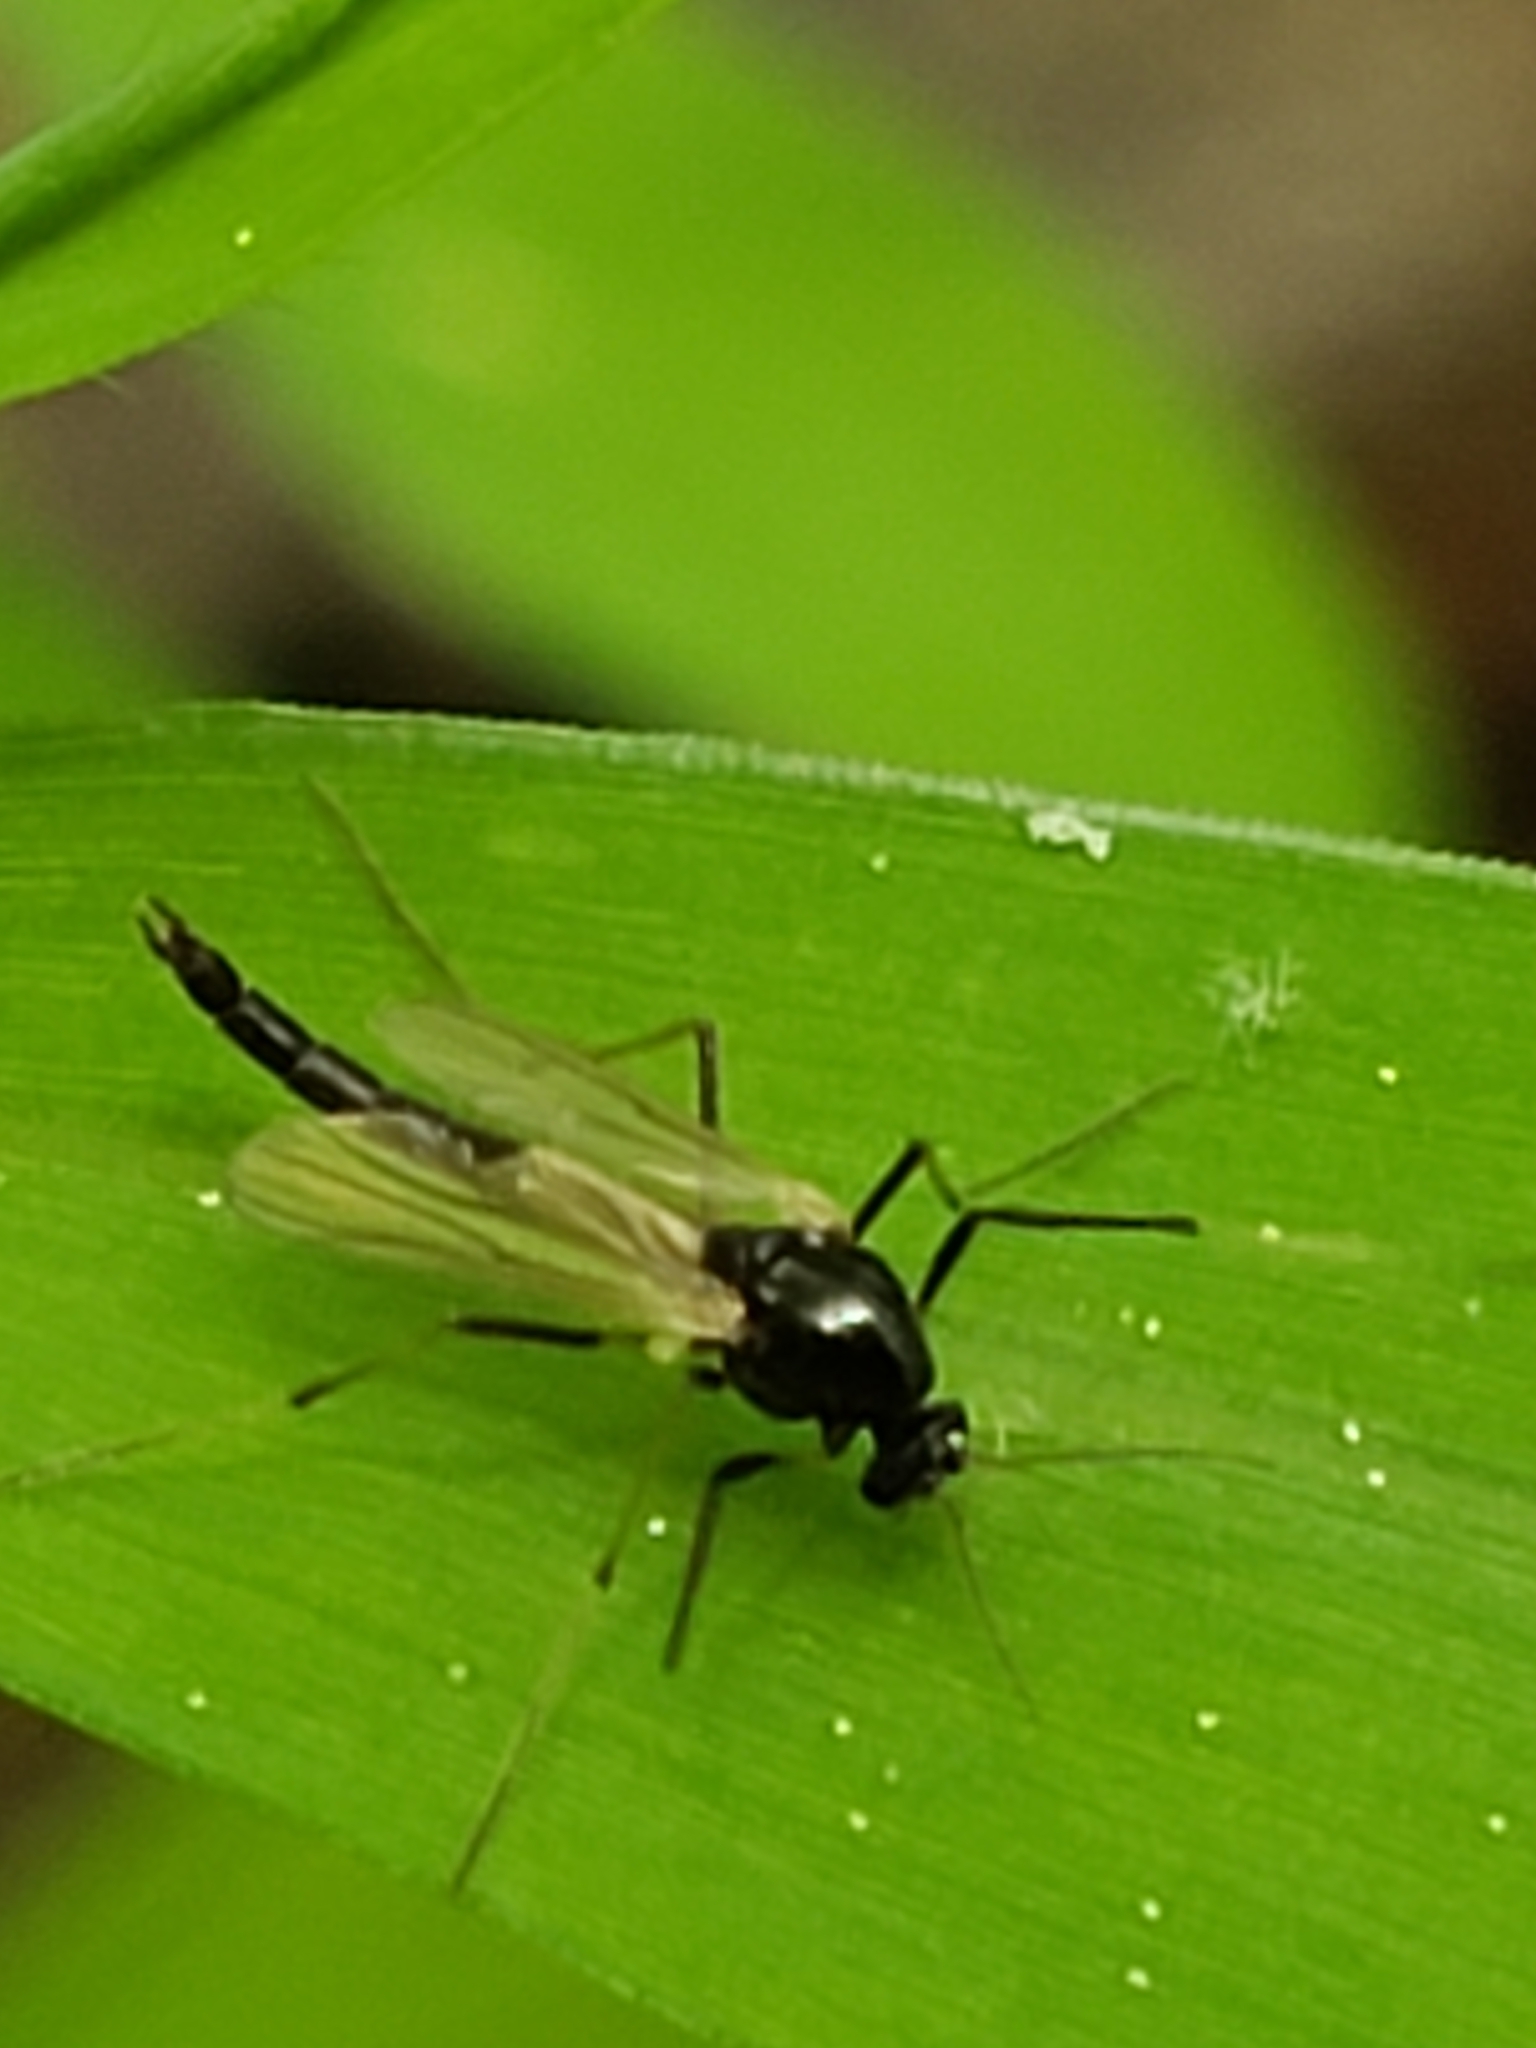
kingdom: Animalia
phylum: Arthropoda
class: Insecta
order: Diptera
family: Chironomidae
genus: Paratendipes
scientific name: Paratendipes albimanus
